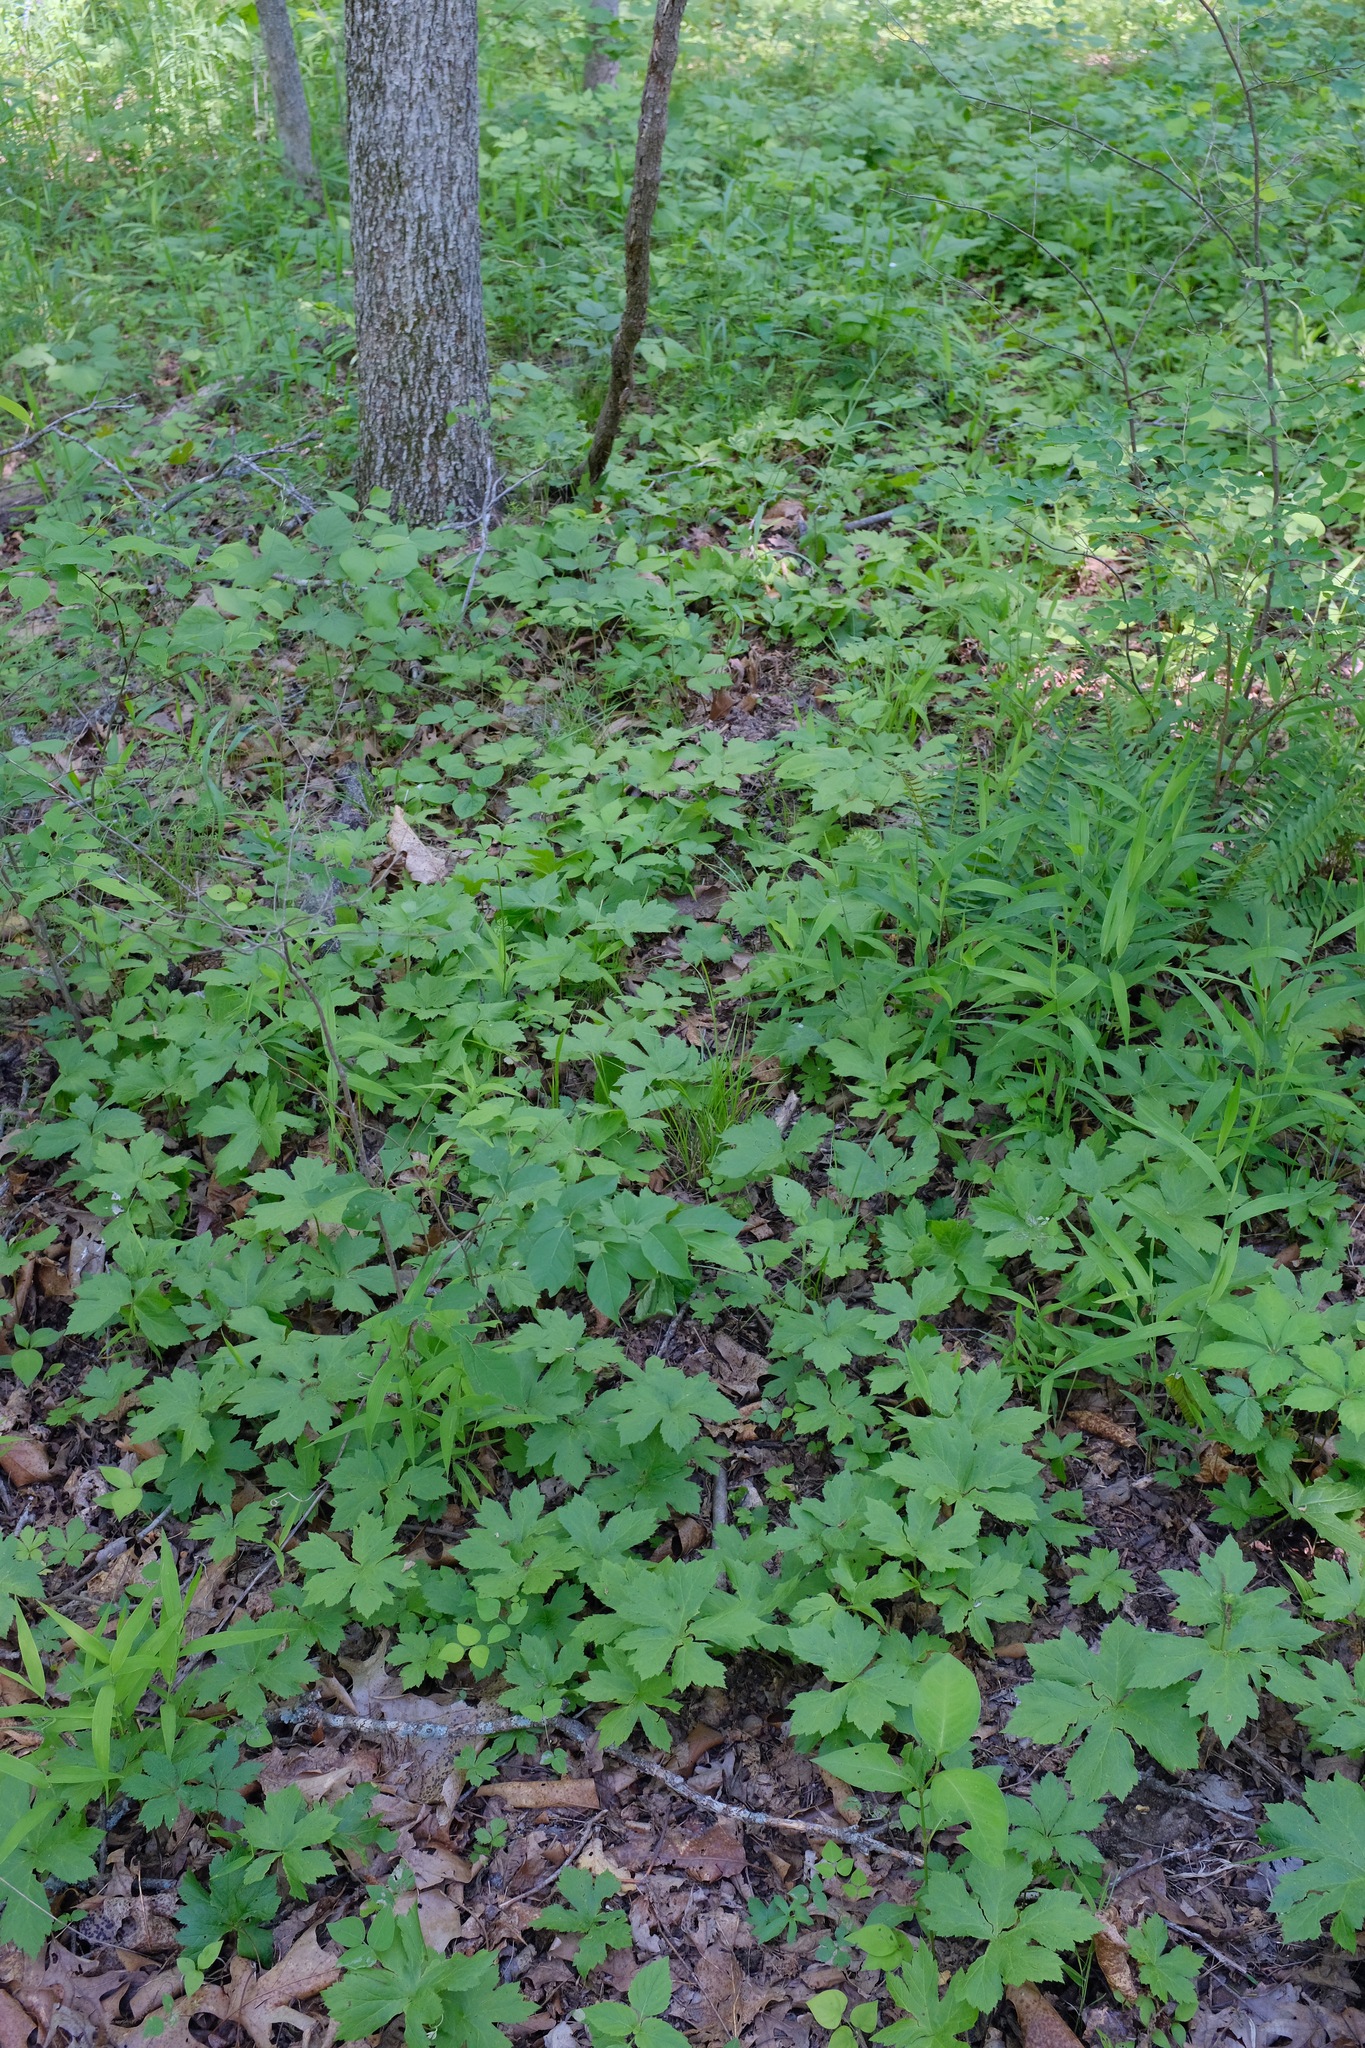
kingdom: Plantae
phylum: Tracheophyta
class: Magnoliopsida
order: Ranunculales
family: Ranunculaceae
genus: Hydrastis
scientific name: Hydrastis canadensis
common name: Goldenseal
